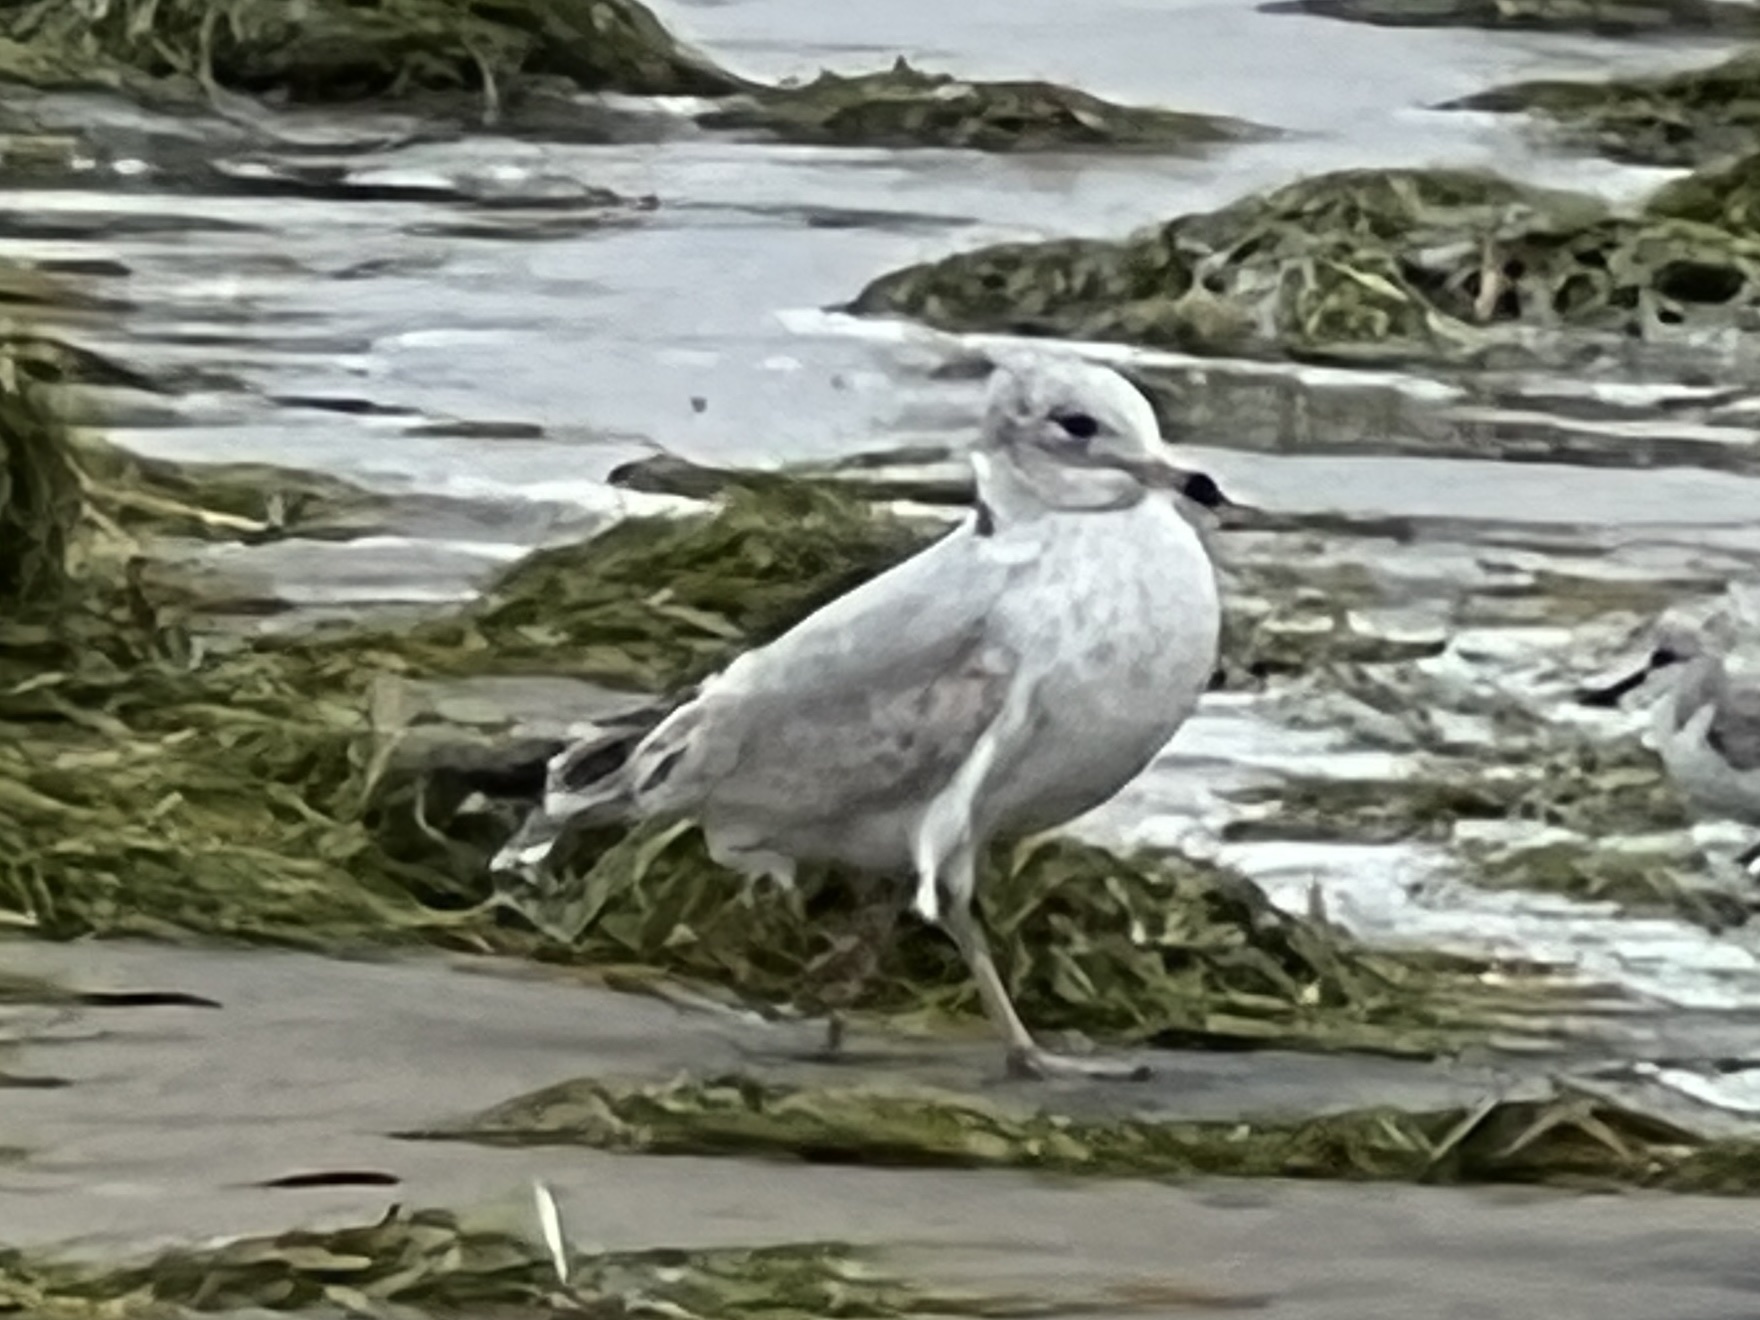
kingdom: Animalia
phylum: Chordata
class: Aves
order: Charadriiformes
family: Laridae
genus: Larus
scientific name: Larus delawarensis
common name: Ring-billed gull
